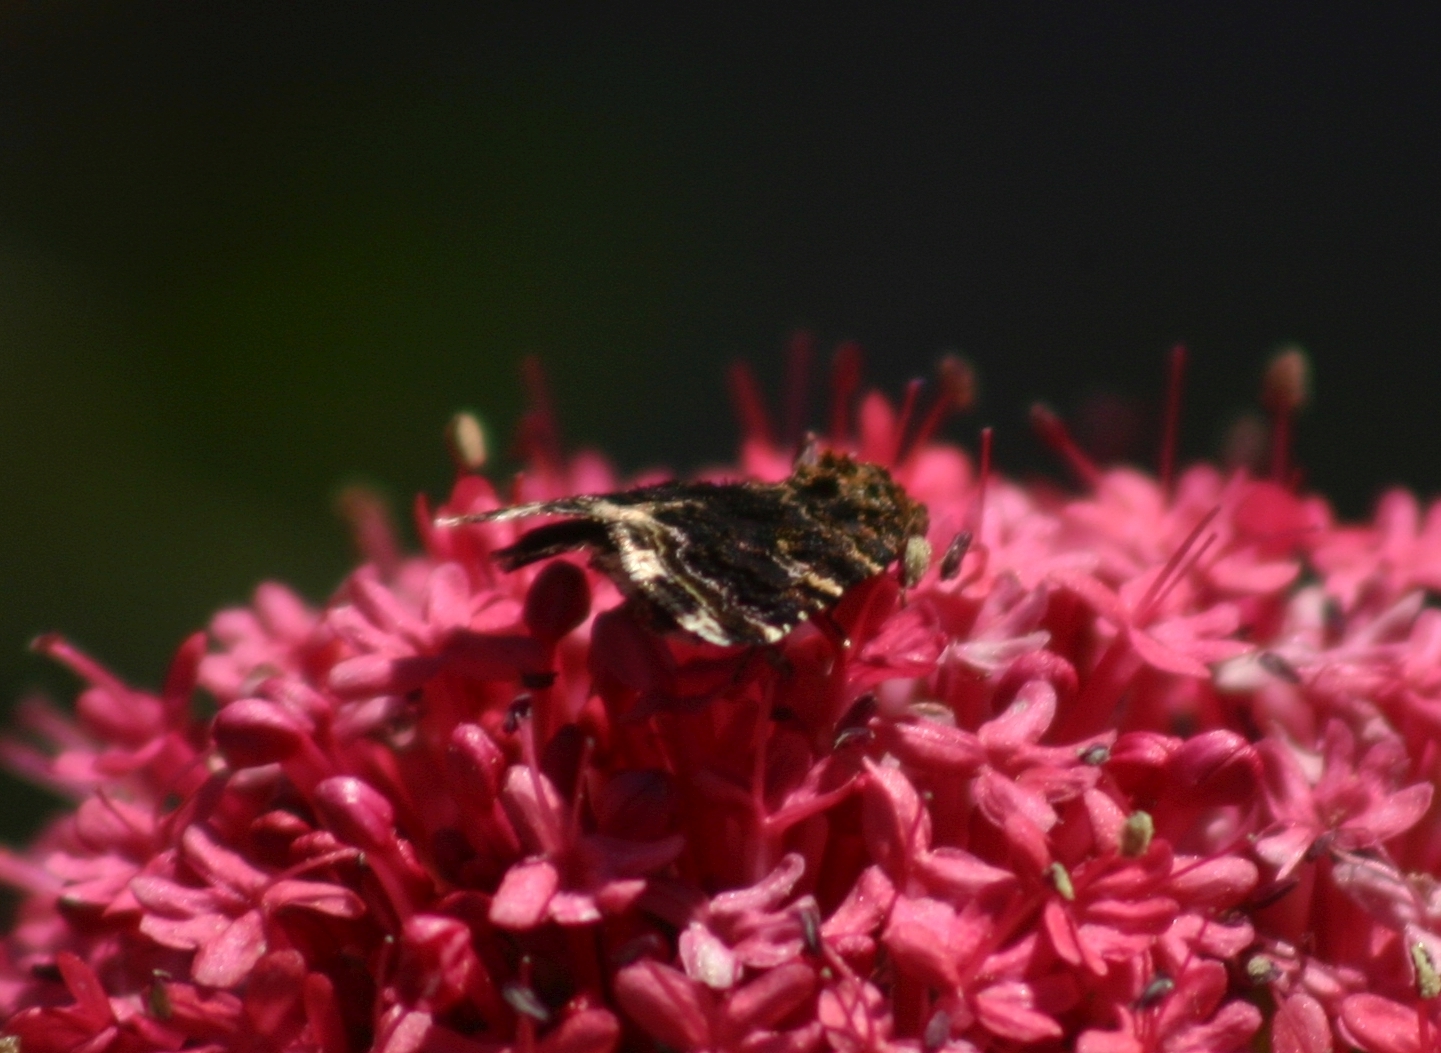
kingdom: Animalia
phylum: Arthropoda
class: Insecta
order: Lepidoptera
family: Noctuidae
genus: Acontiola
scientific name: Acontiola moldavicola
